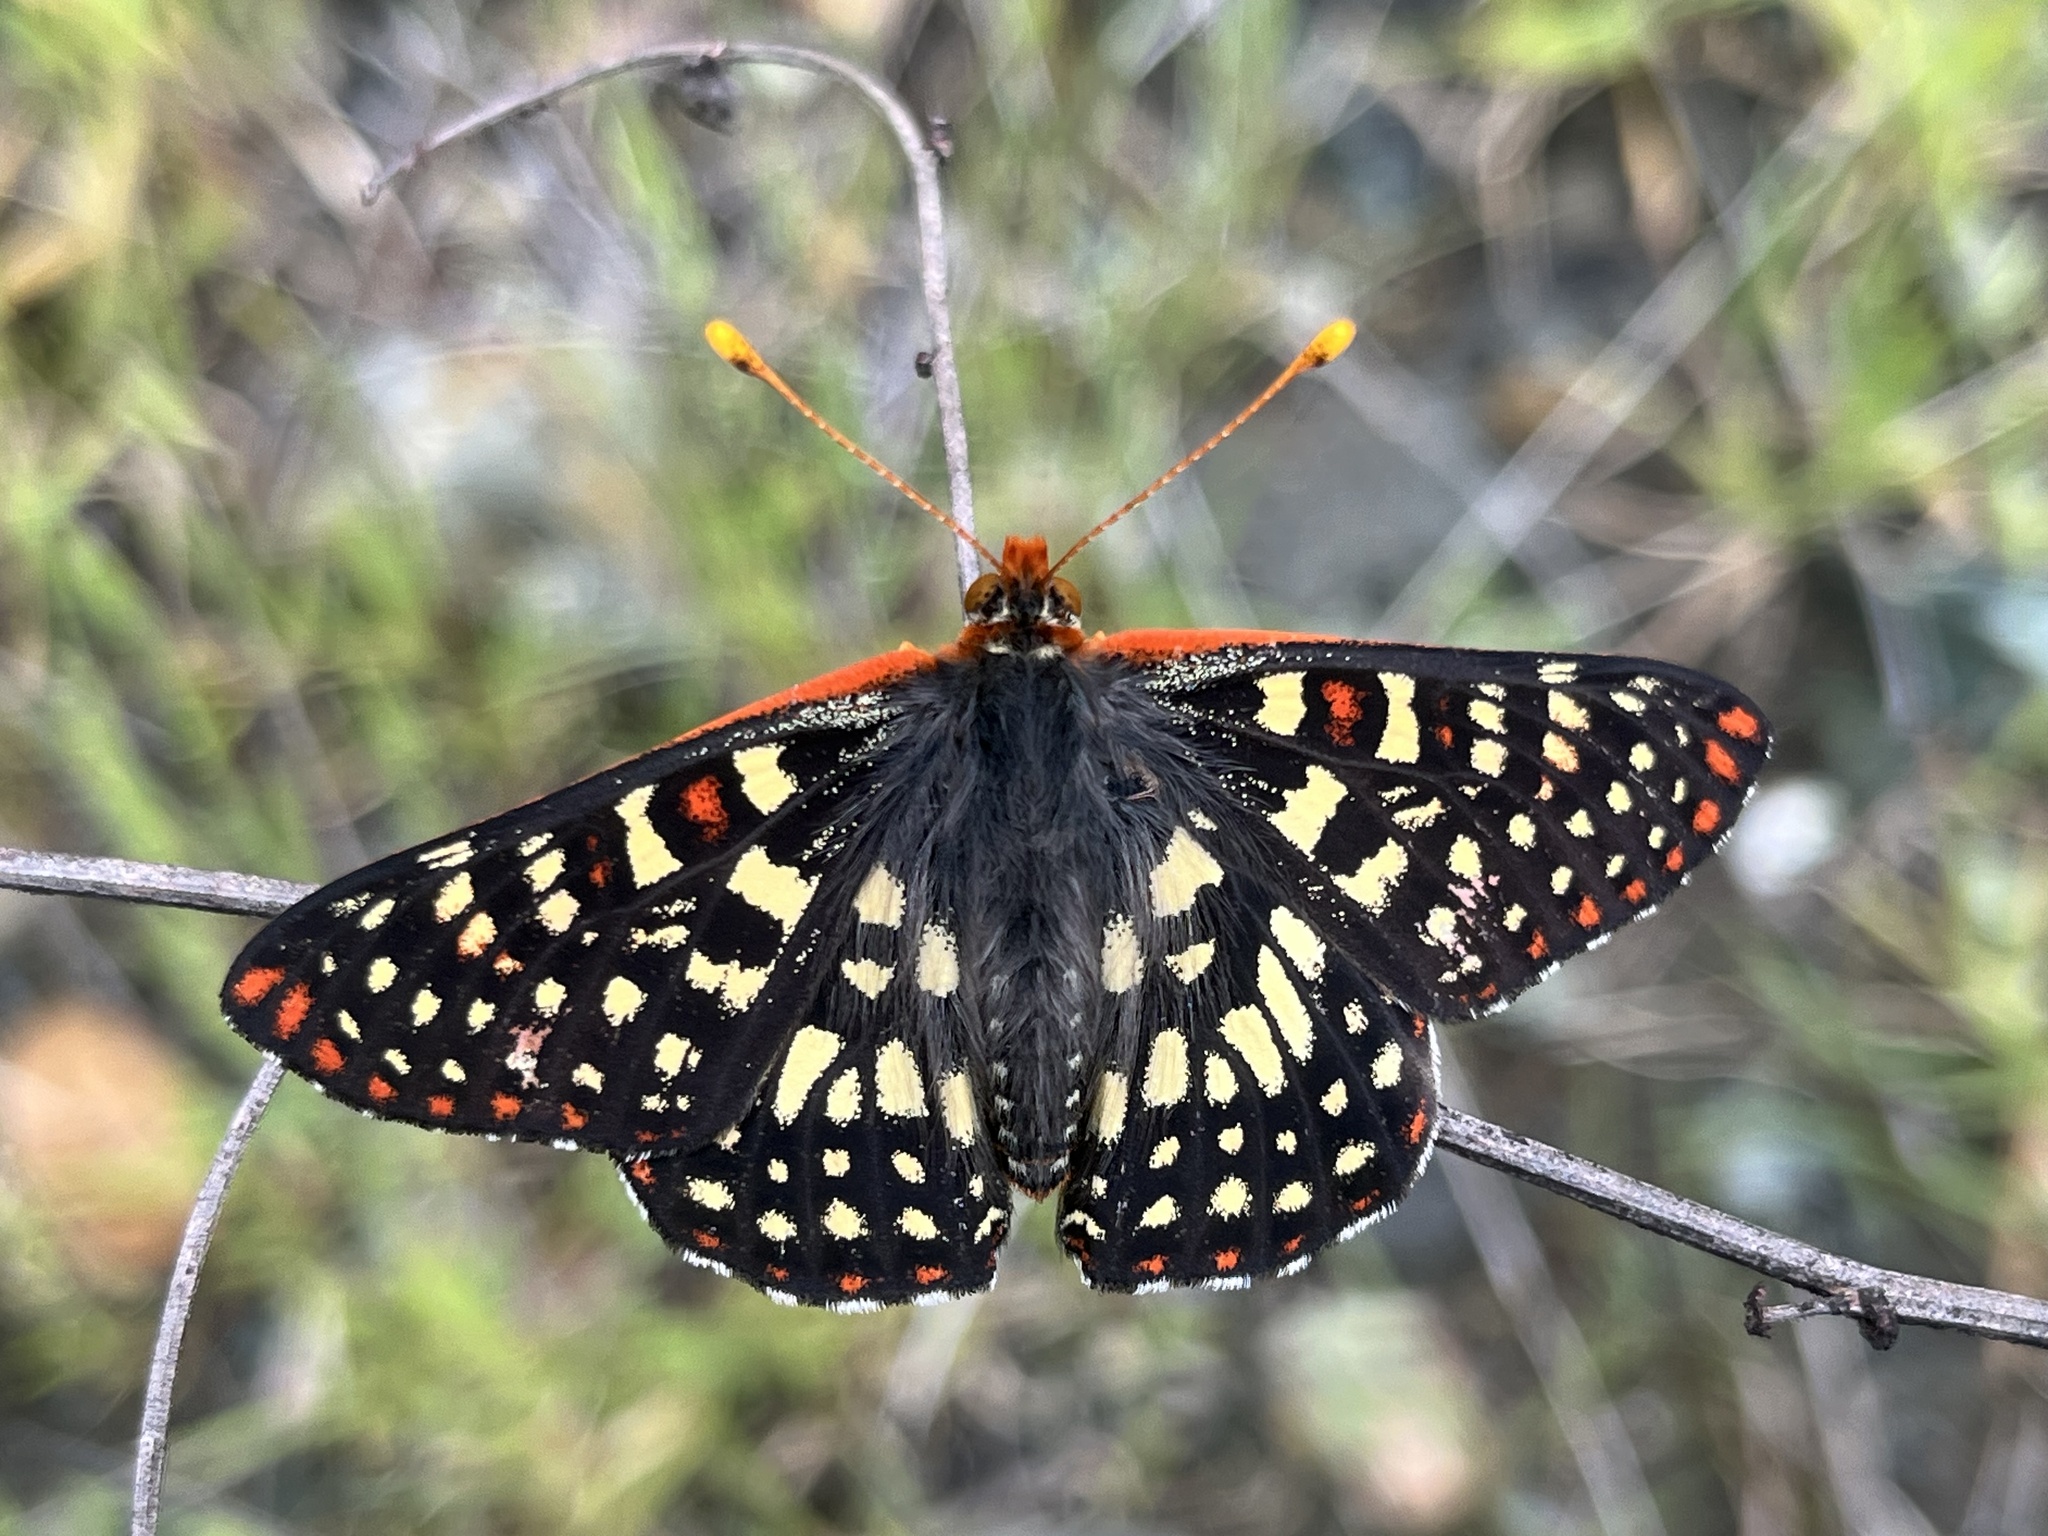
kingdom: Animalia
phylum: Arthropoda
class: Insecta
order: Lepidoptera
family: Nymphalidae
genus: Occidryas
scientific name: Occidryas chalcedona
